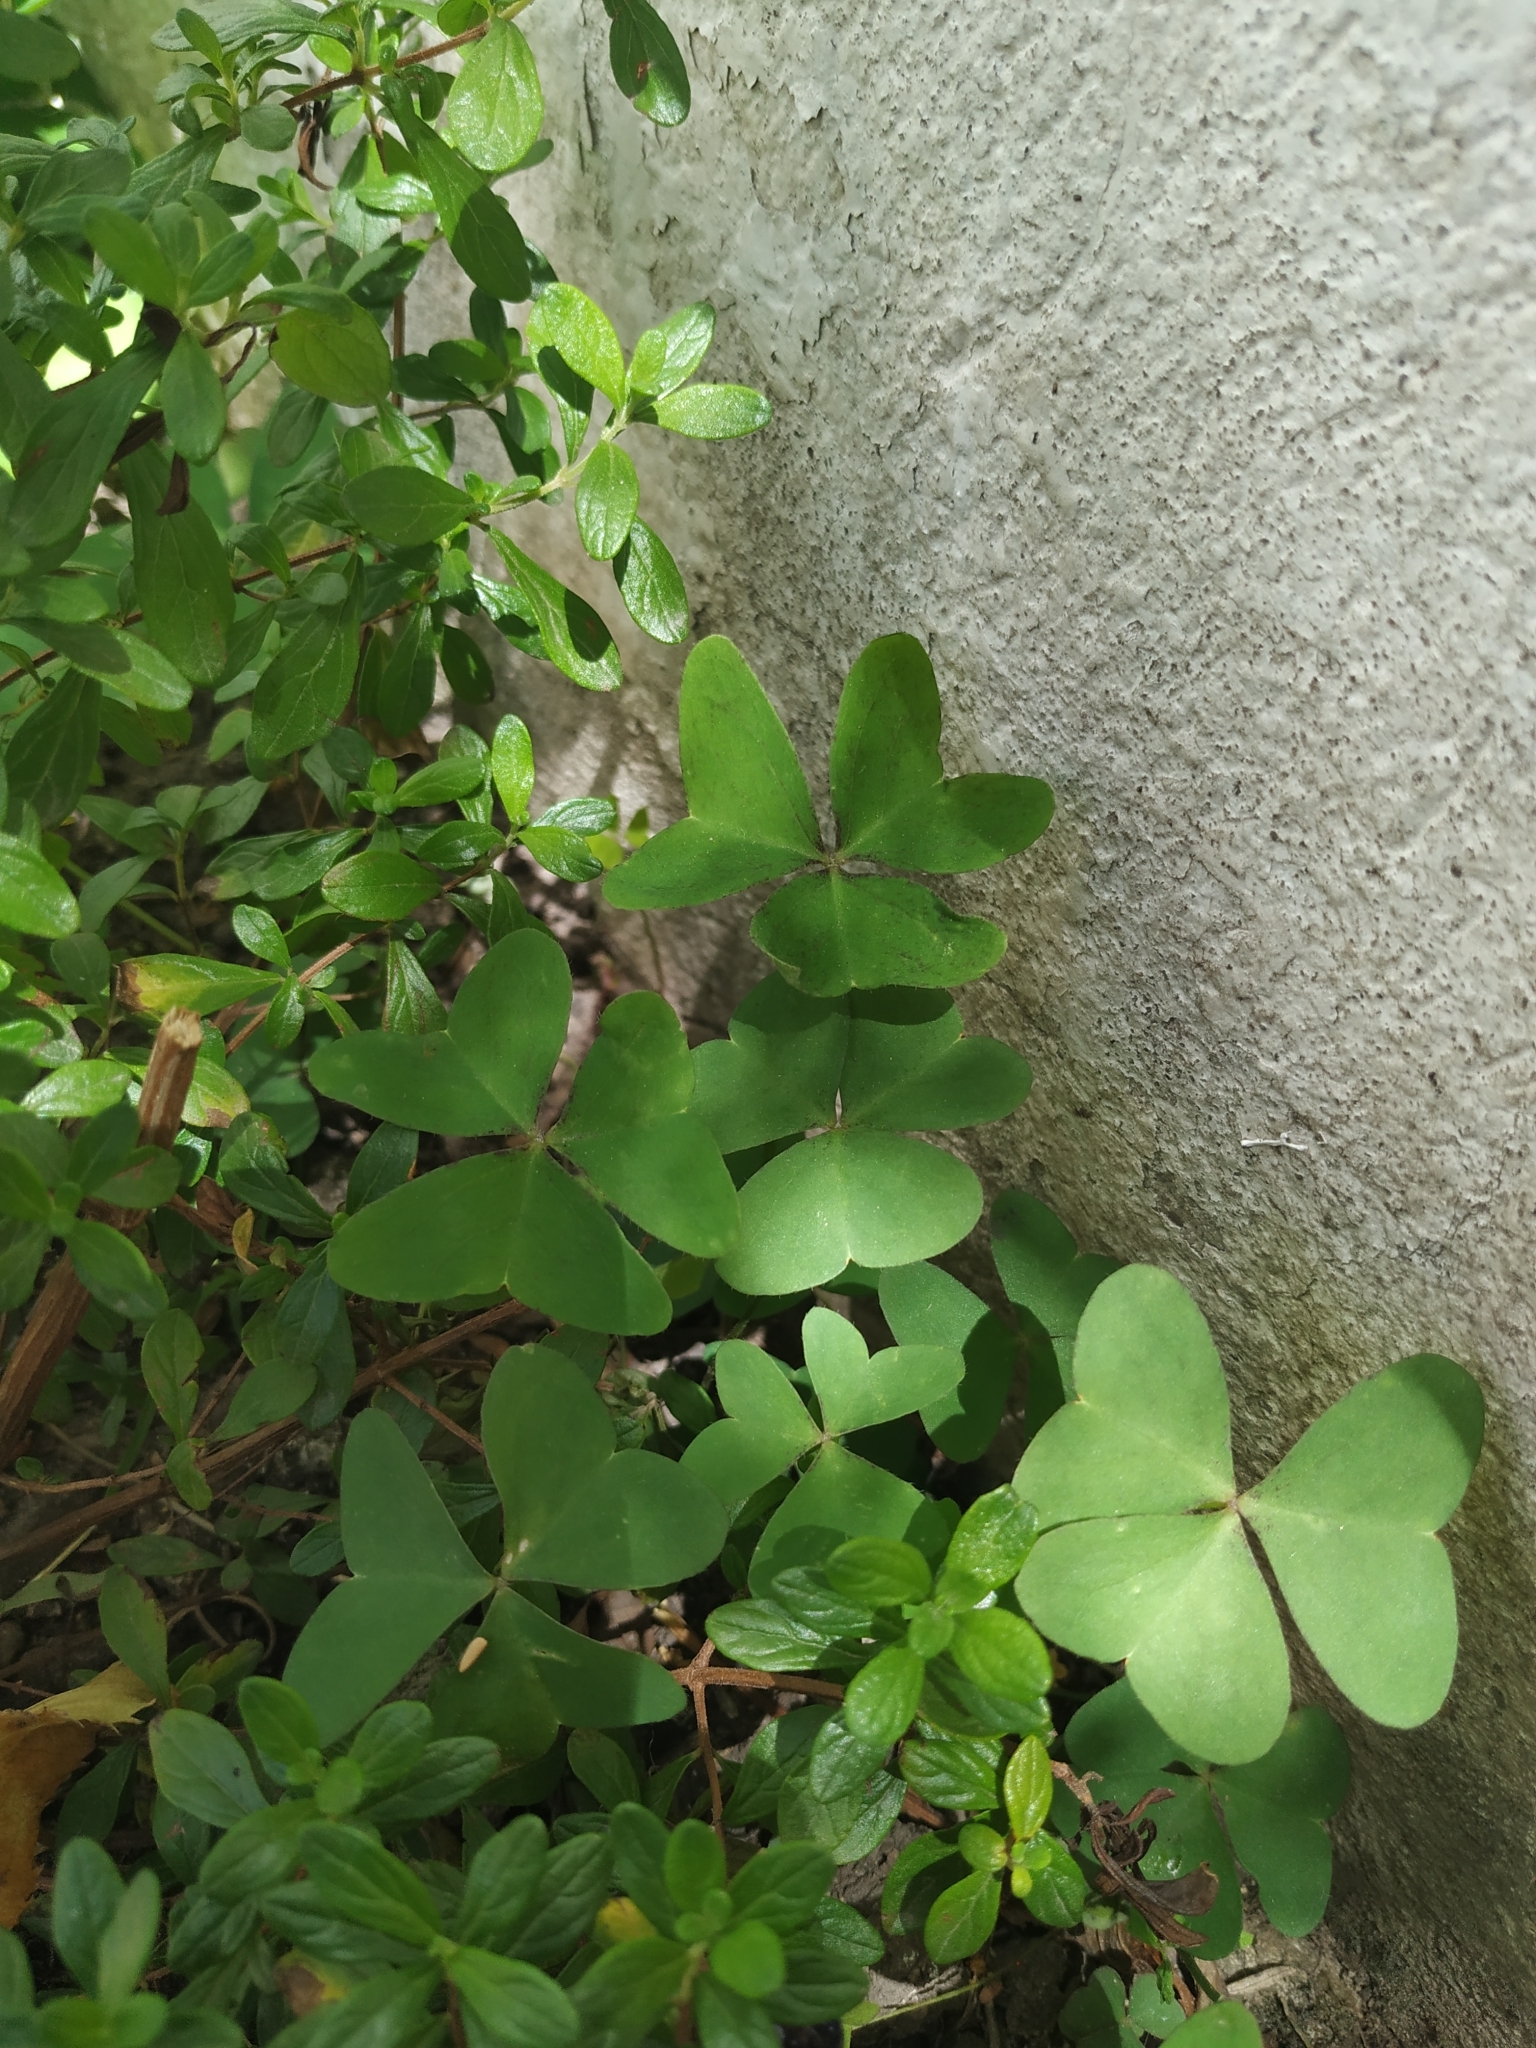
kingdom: Plantae
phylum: Tracheophyta
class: Magnoliopsida
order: Oxalidales
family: Oxalidaceae
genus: Oxalis
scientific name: Oxalis latifolia
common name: Garden pink-sorrel
